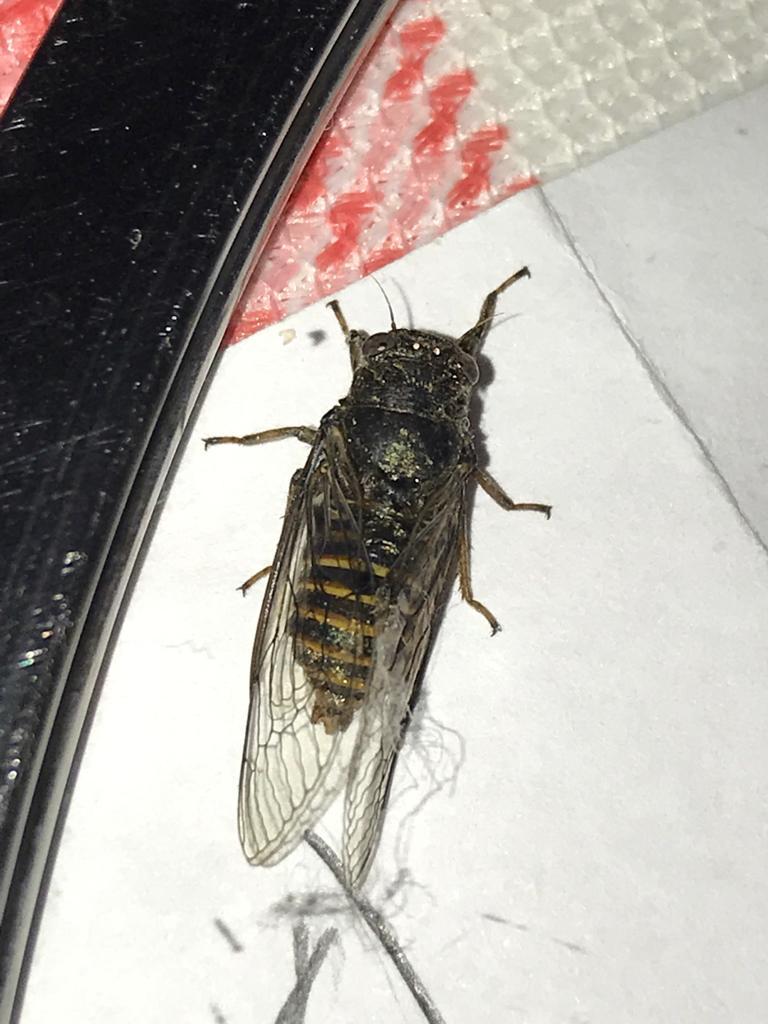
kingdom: Animalia
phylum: Arthropoda
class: Insecta
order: Hemiptera
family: Cicadidae
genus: Pagiphora
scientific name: Pagiphora annulata
